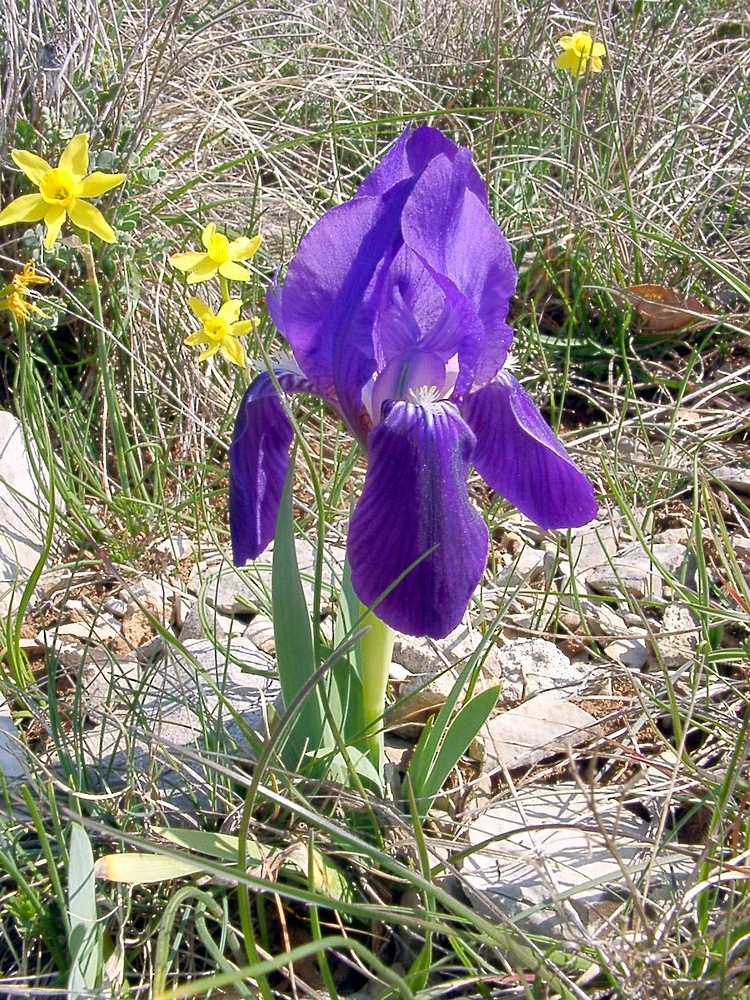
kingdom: Plantae
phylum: Tracheophyta
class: Liliopsida
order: Asparagales
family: Iridaceae
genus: Iris
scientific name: Iris lutescens
